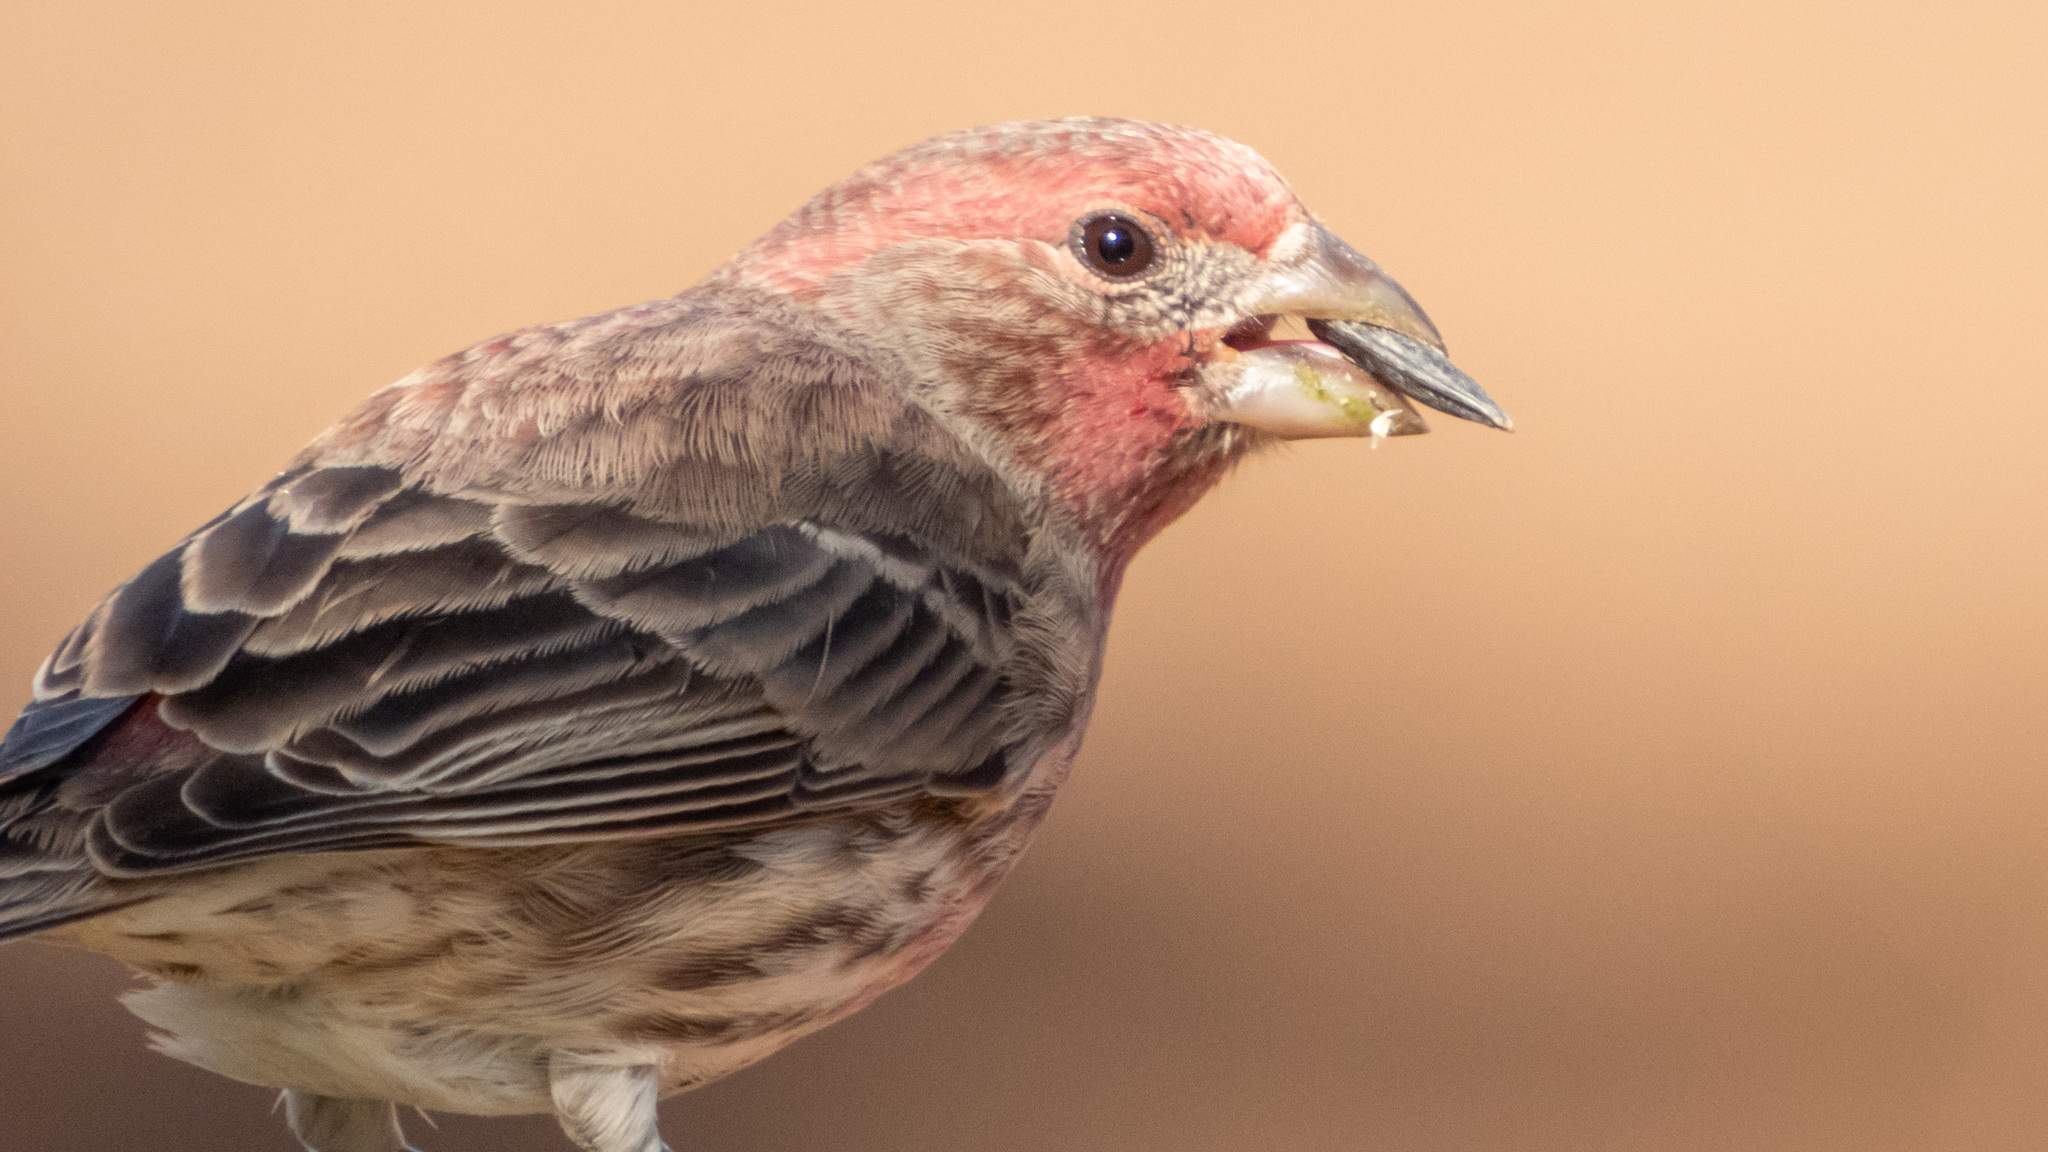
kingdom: Animalia
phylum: Chordata
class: Aves
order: Passeriformes
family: Fringillidae
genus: Haemorhous
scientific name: Haemorhous mexicanus
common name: House finch
